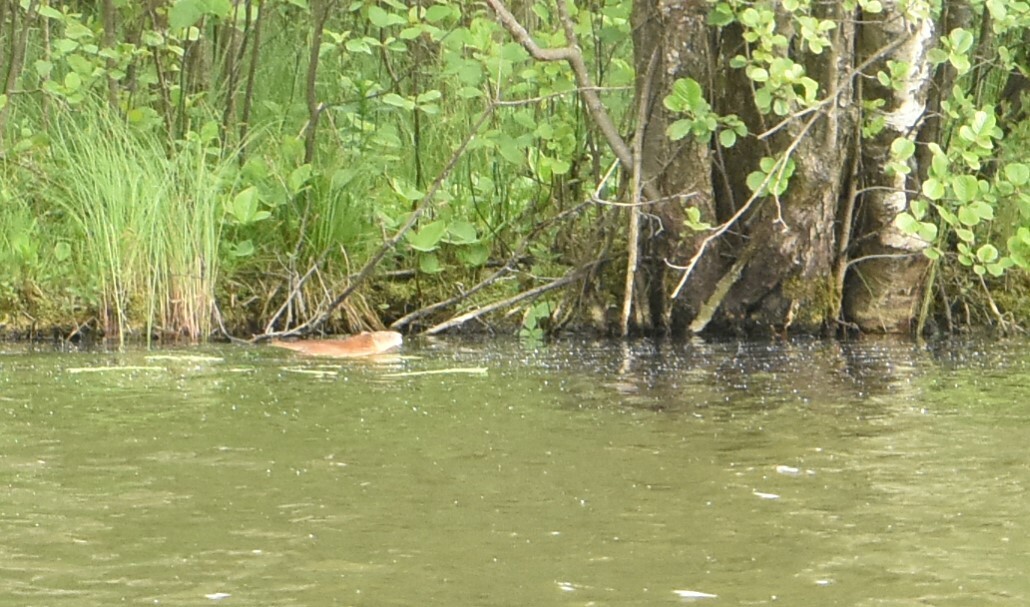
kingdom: Animalia
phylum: Chordata
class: Mammalia
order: Rodentia
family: Cricetidae
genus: Ondatra
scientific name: Ondatra zibethicus
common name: Muskrat
